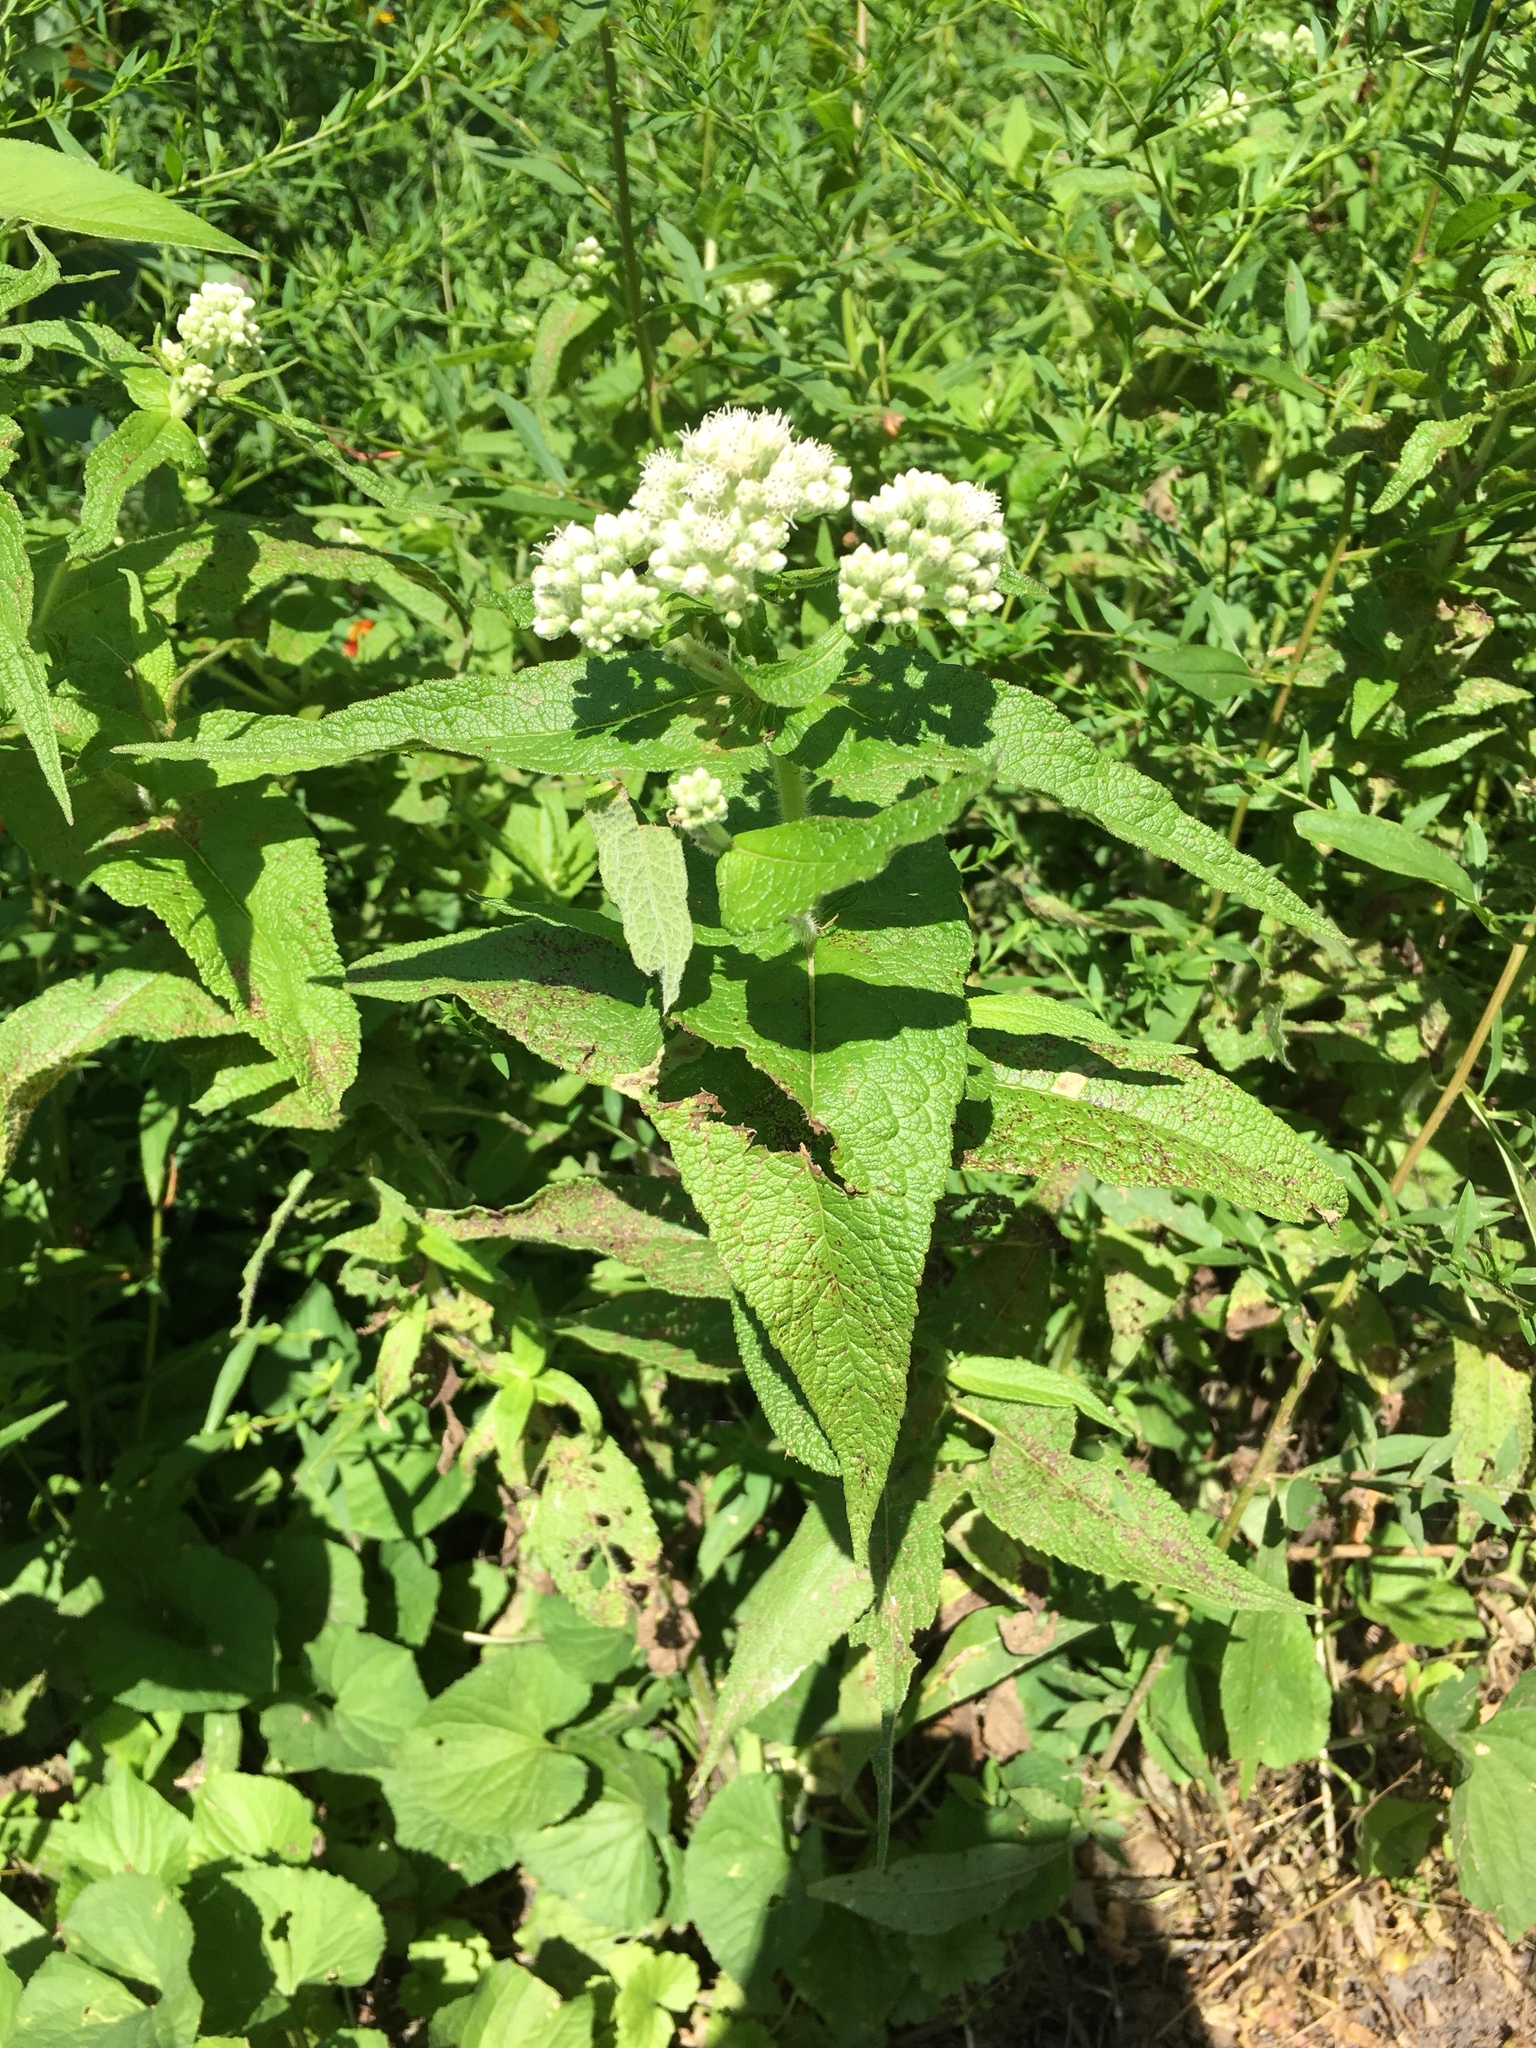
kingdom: Plantae
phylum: Tracheophyta
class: Magnoliopsida
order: Asterales
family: Asteraceae
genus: Eupatorium
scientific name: Eupatorium perfoliatum
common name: Boneset
